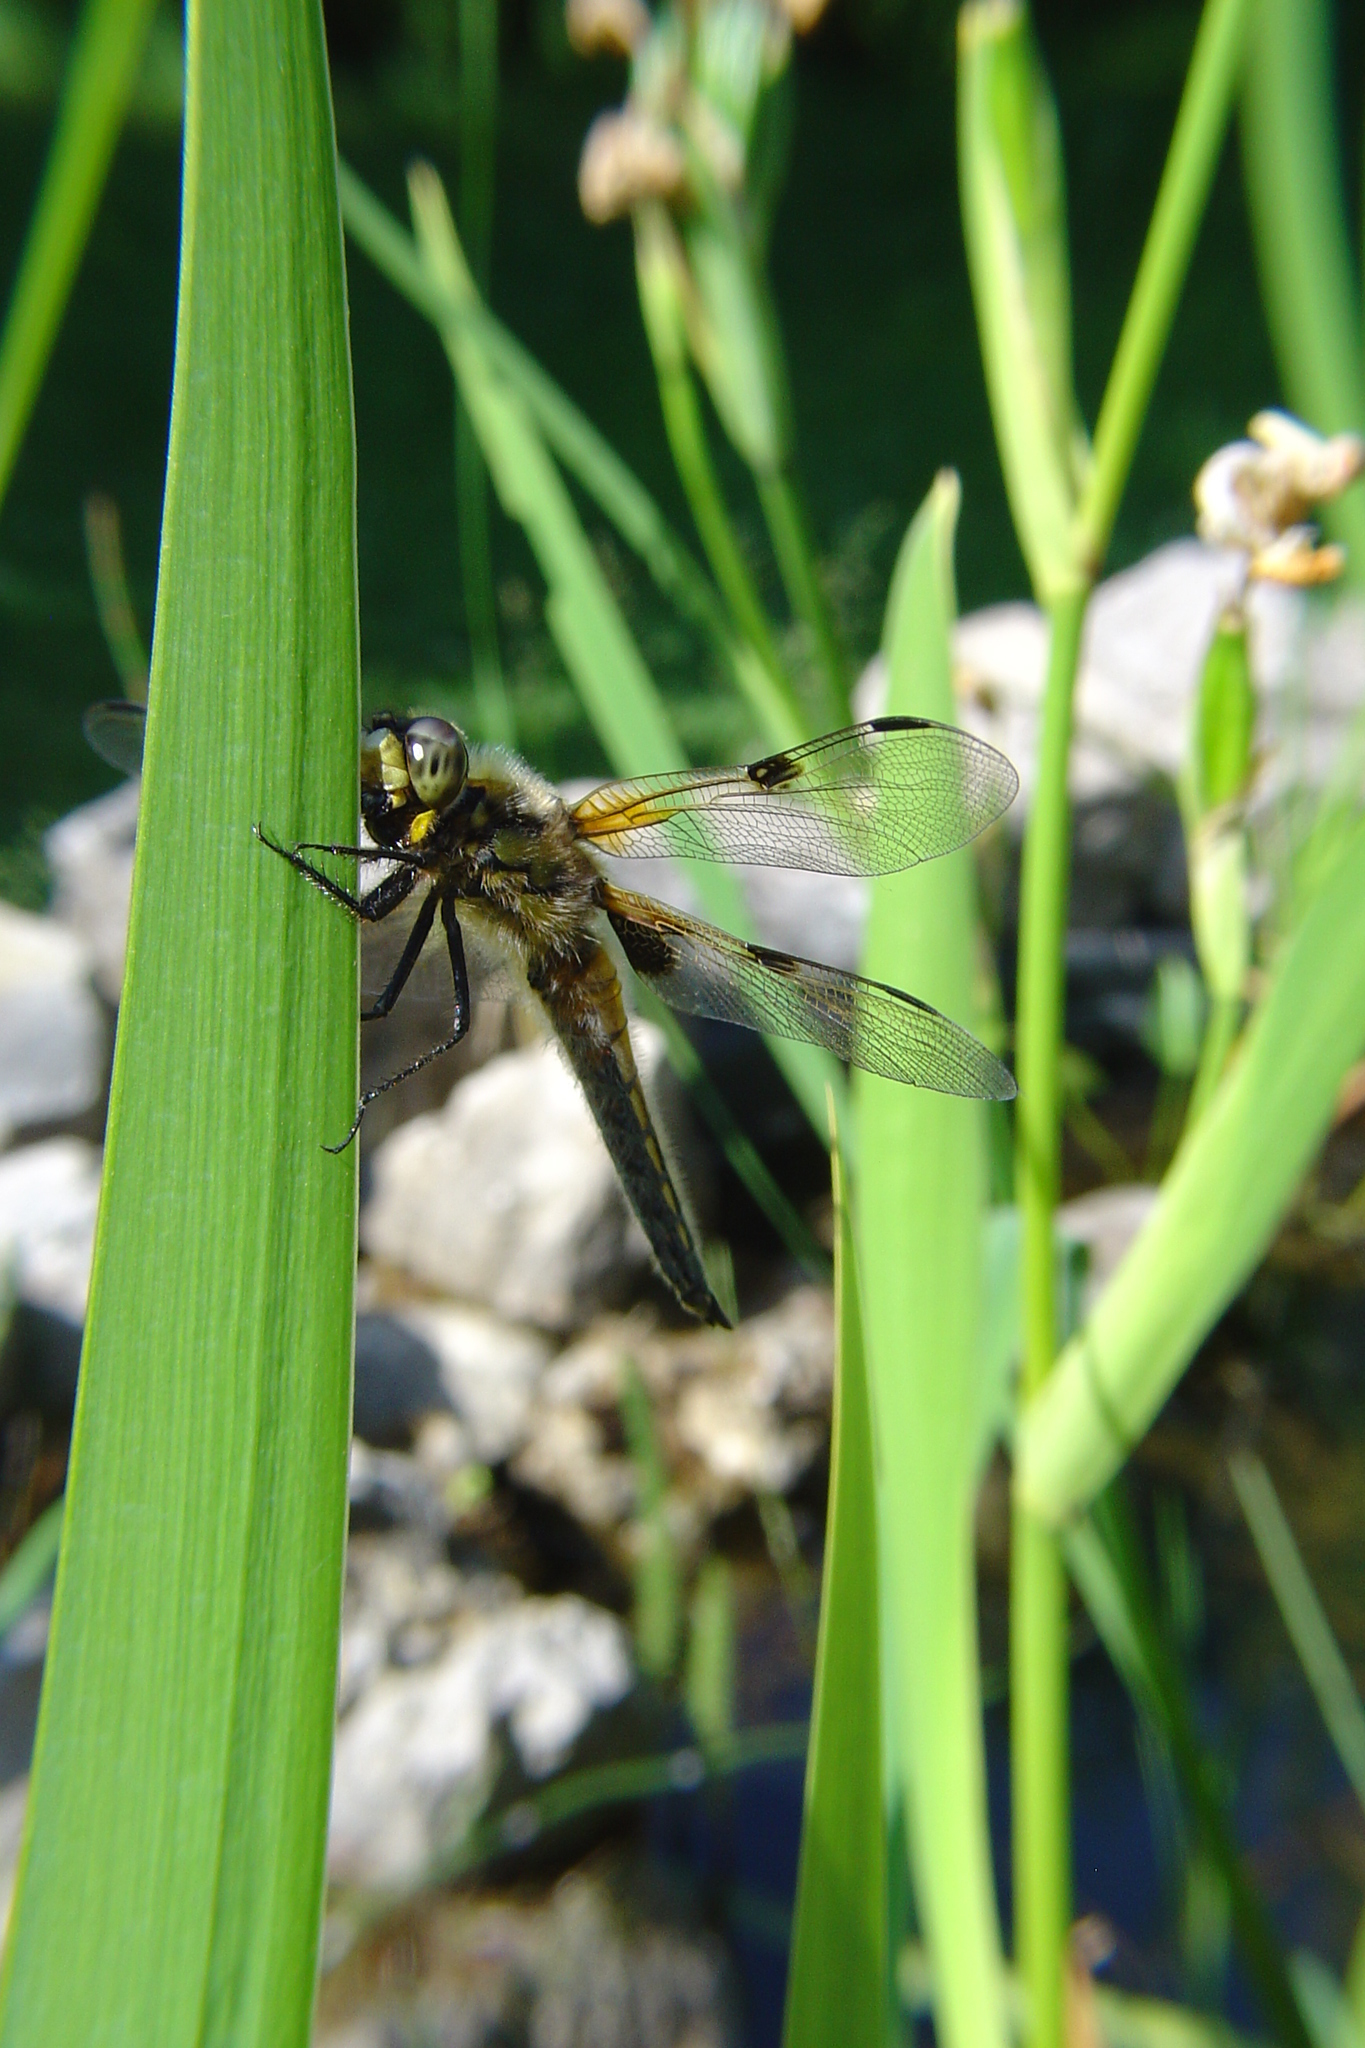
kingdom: Animalia
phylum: Arthropoda
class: Insecta
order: Odonata
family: Libellulidae
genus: Libellula
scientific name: Libellula quadrimaculata
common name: Four-spotted chaser
